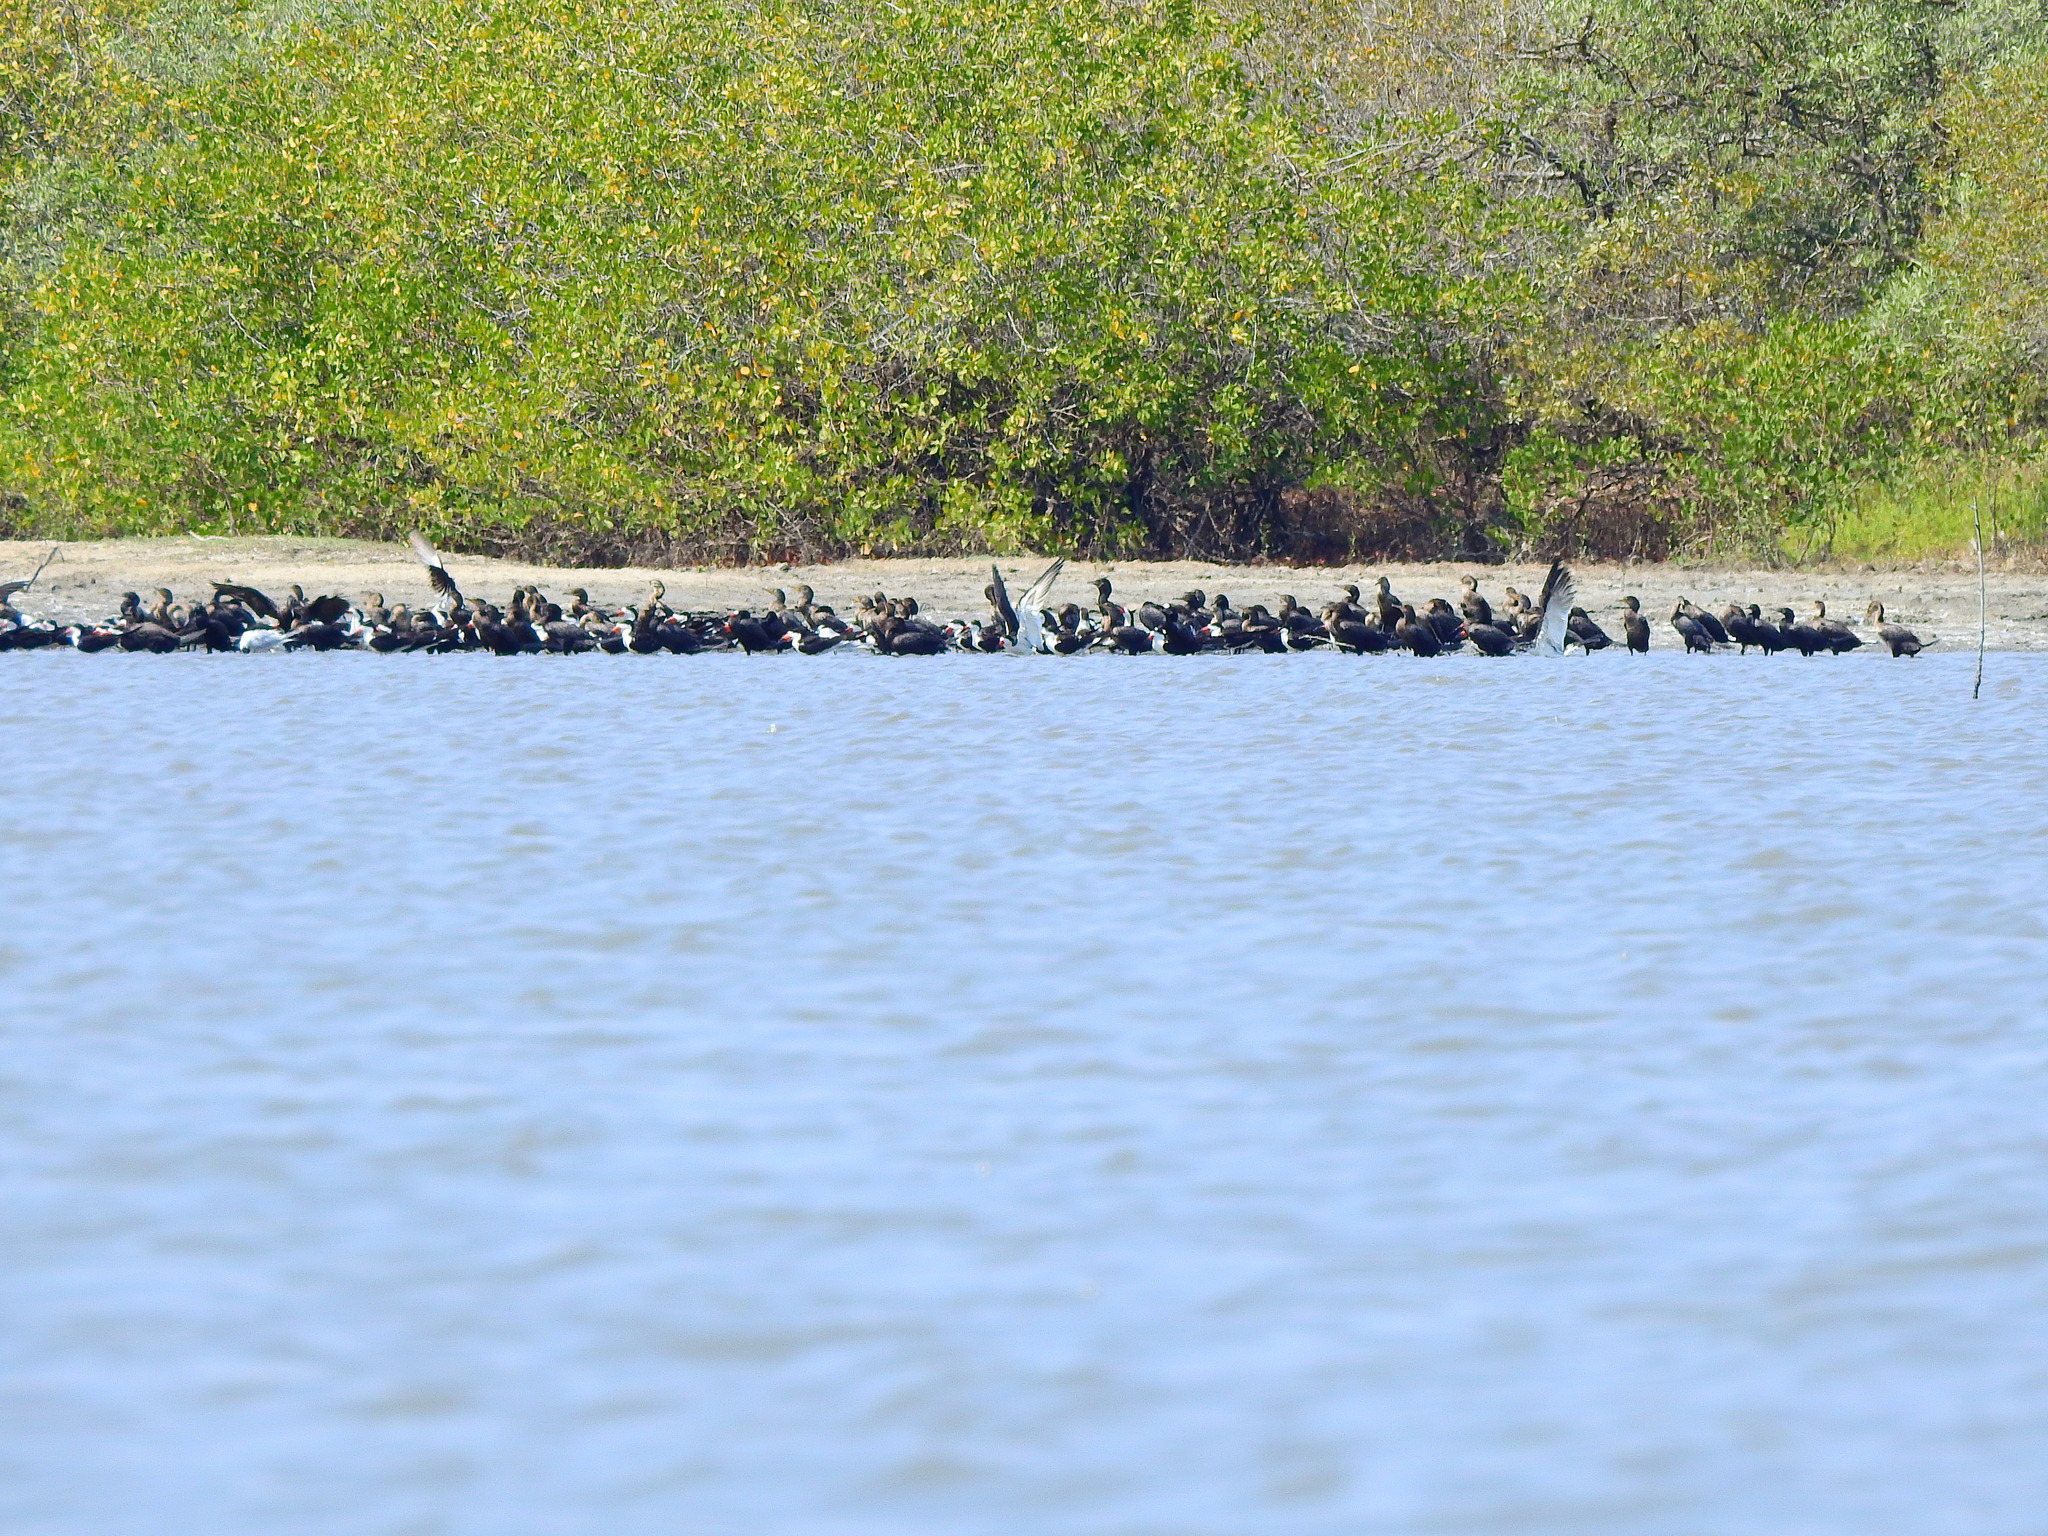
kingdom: Animalia
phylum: Chordata
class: Aves
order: Charadriiformes
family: Laridae
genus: Rynchops
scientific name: Rynchops niger
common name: Black skimmer
